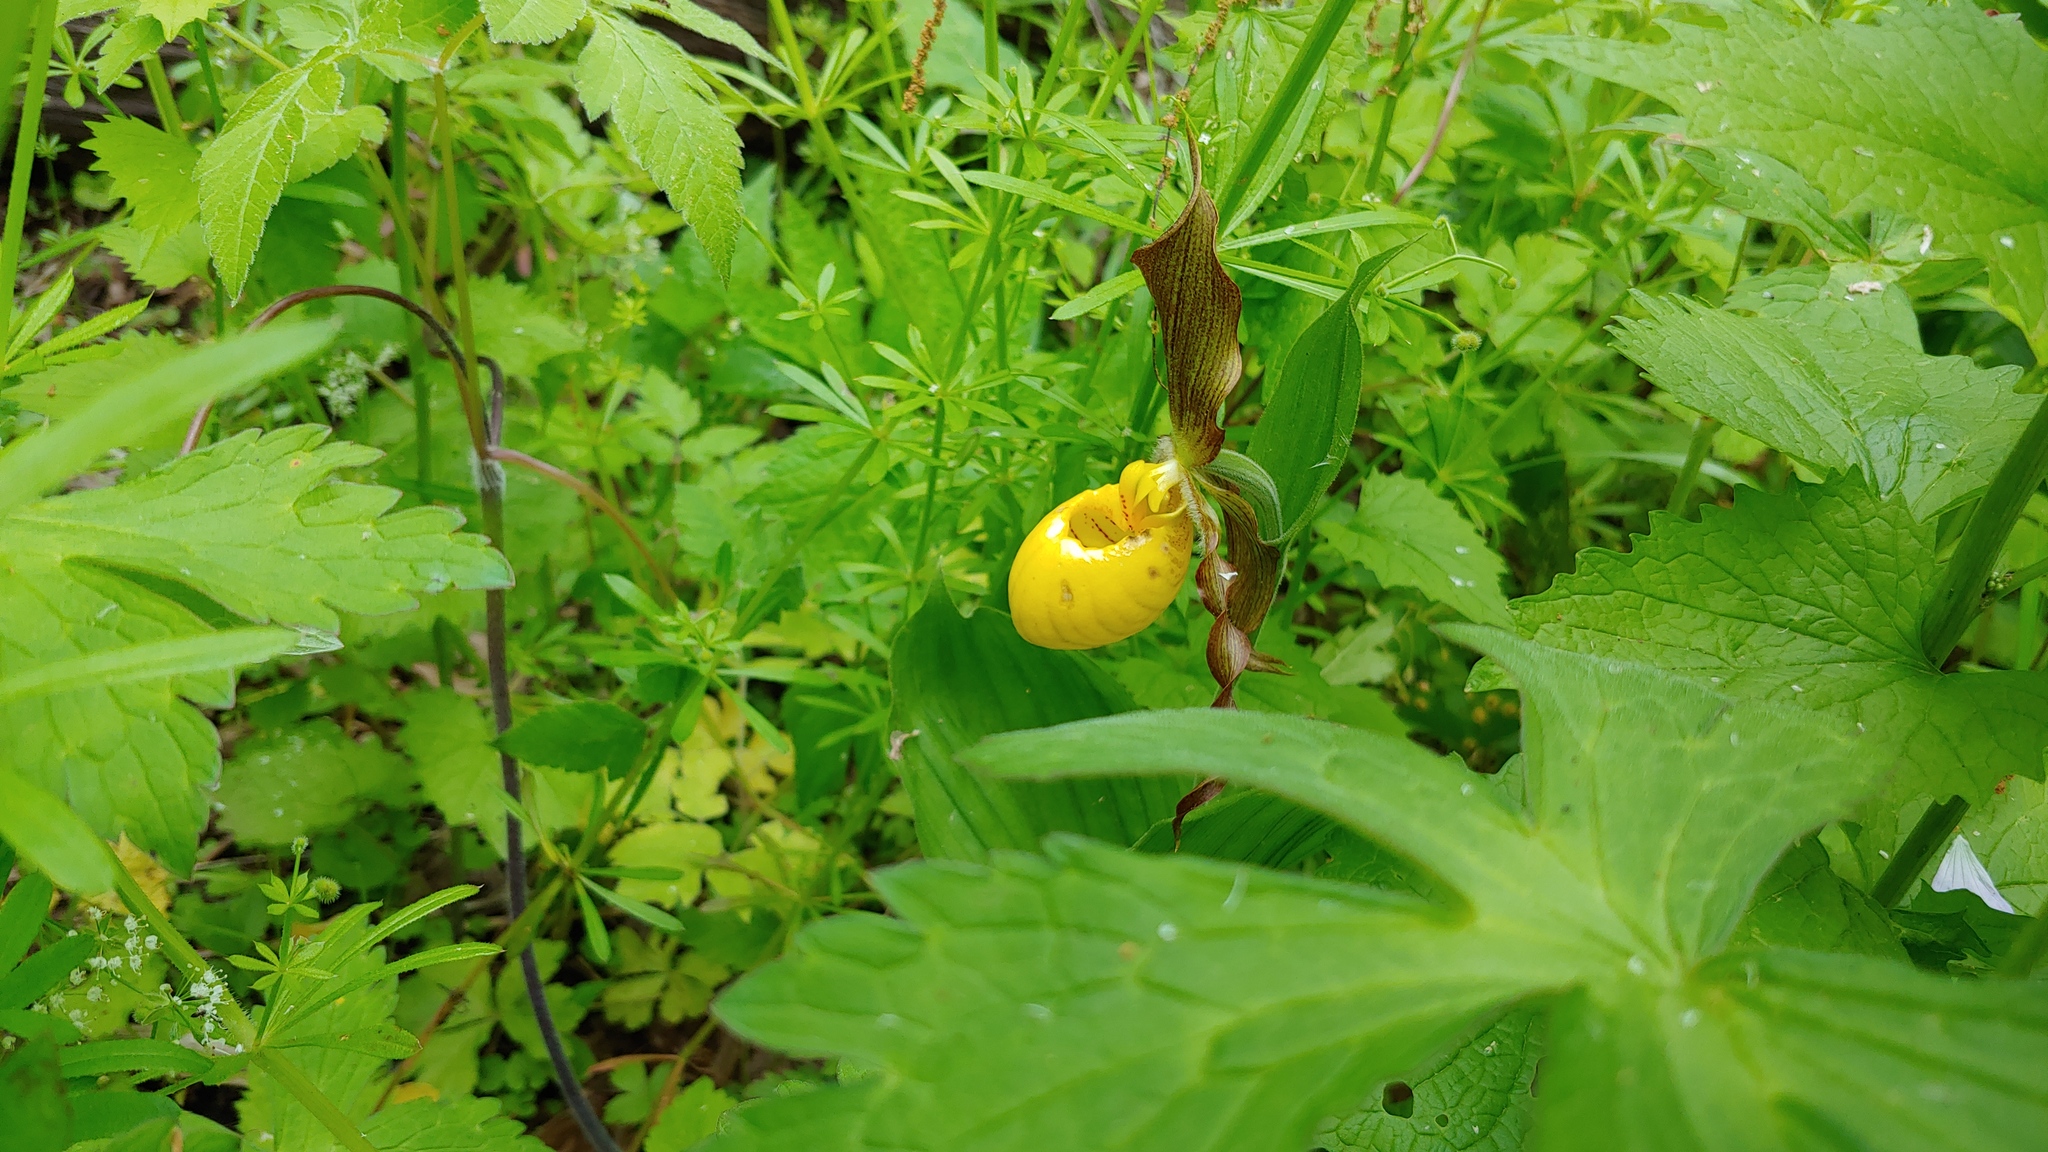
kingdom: Plantae
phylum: Tracheophyta
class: Liliopsida
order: Asparagales
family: Orchidaceae
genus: Cypripedium
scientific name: Cypripedium parviflorum
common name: American yellow lady's-slipper
